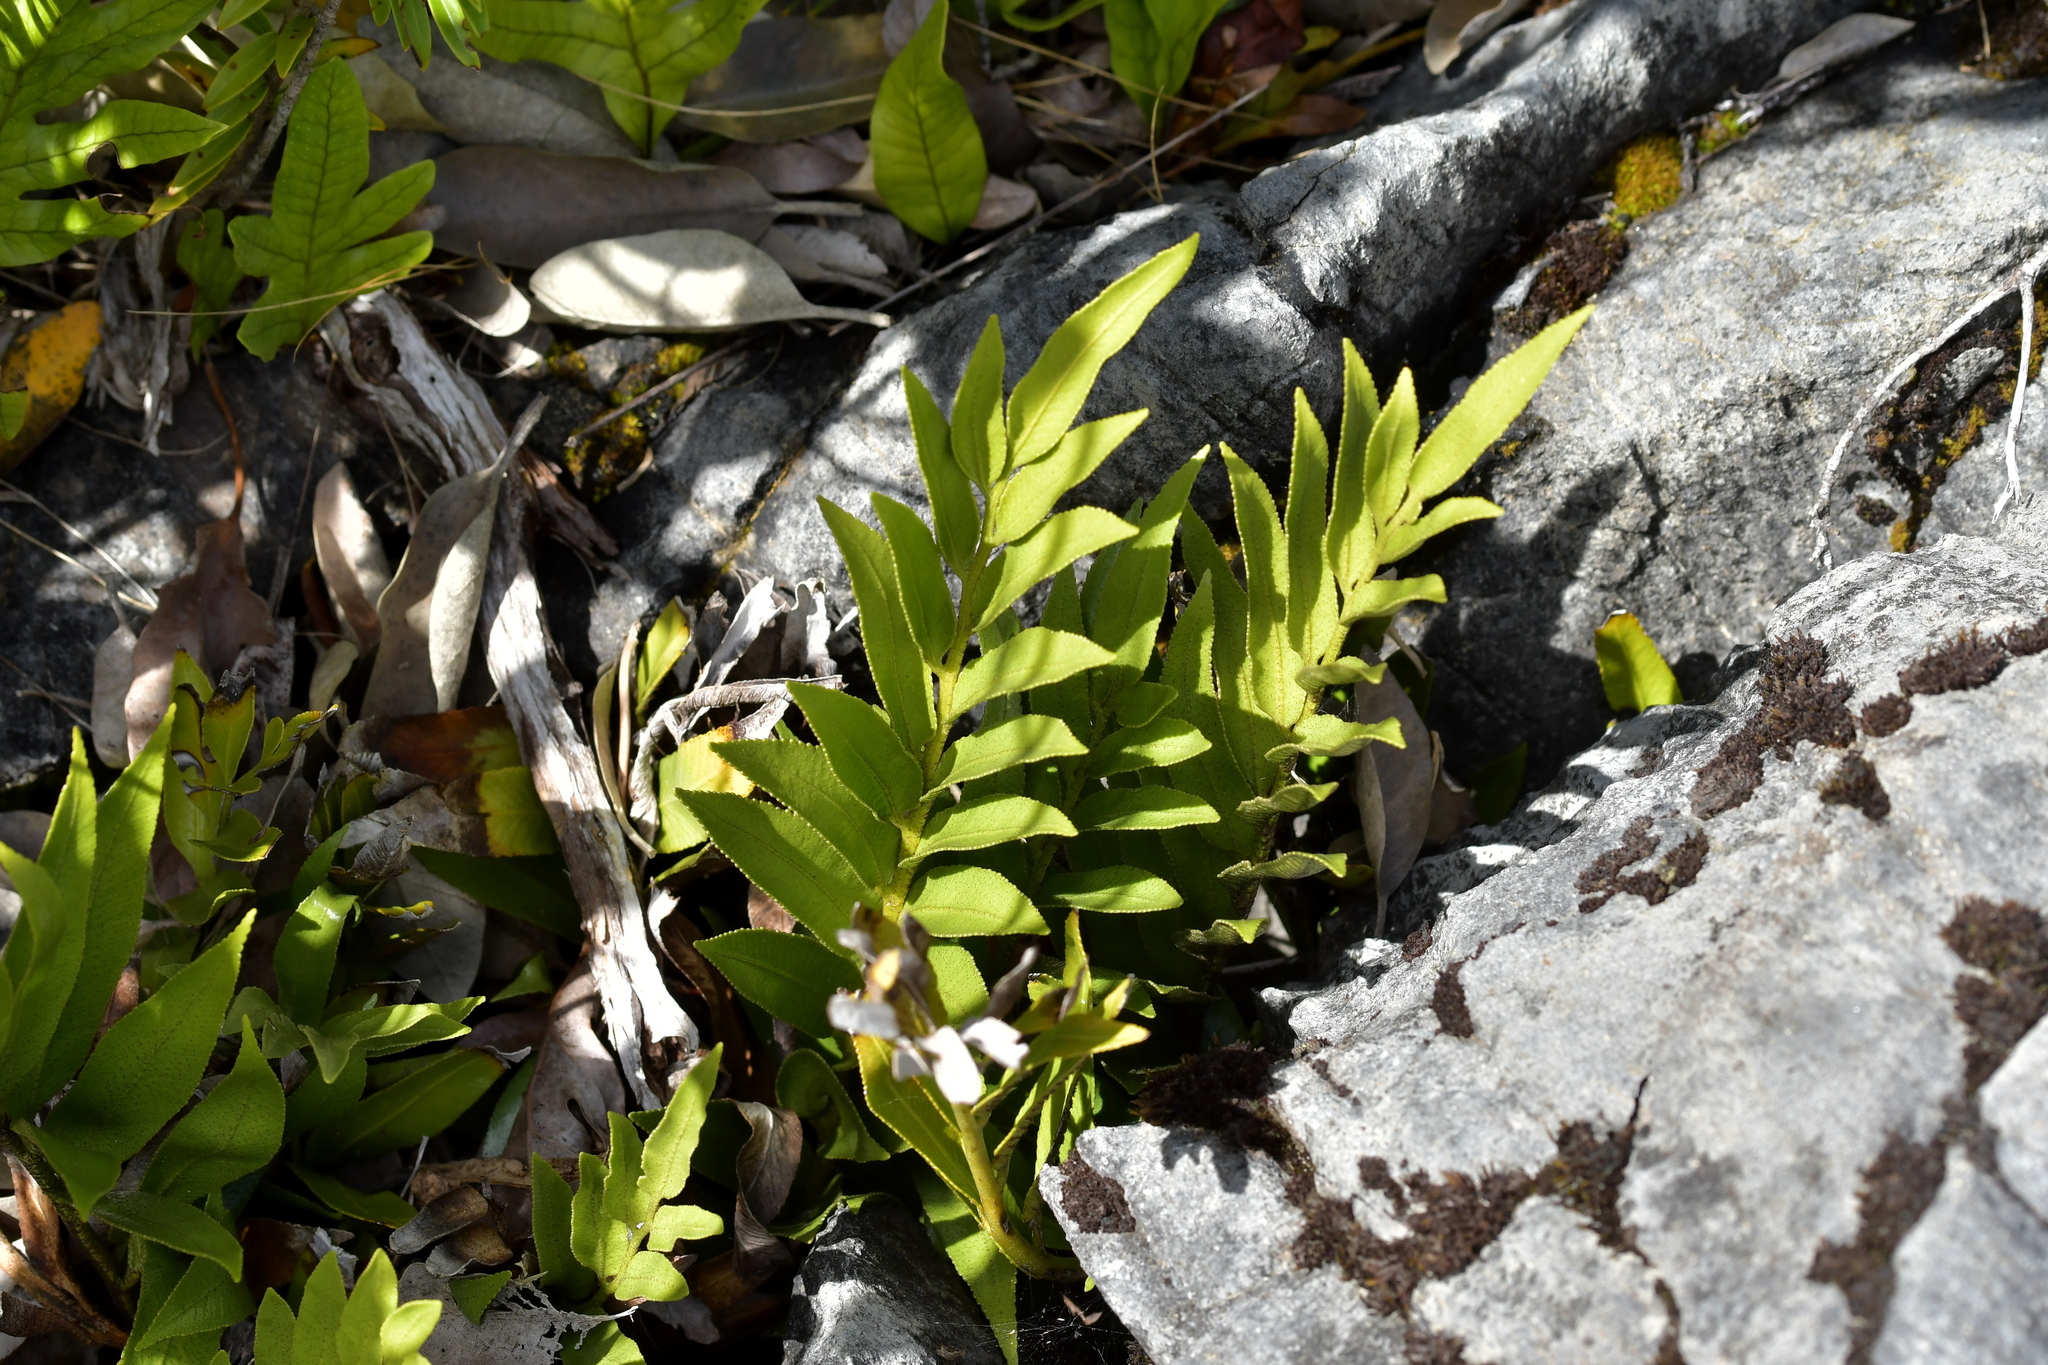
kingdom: Plantae
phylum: Tracheophyta
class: Polypodiopsida
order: Polypodiales
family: Aspleniaceae
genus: Asplenium
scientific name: Asplenium lepidotum
